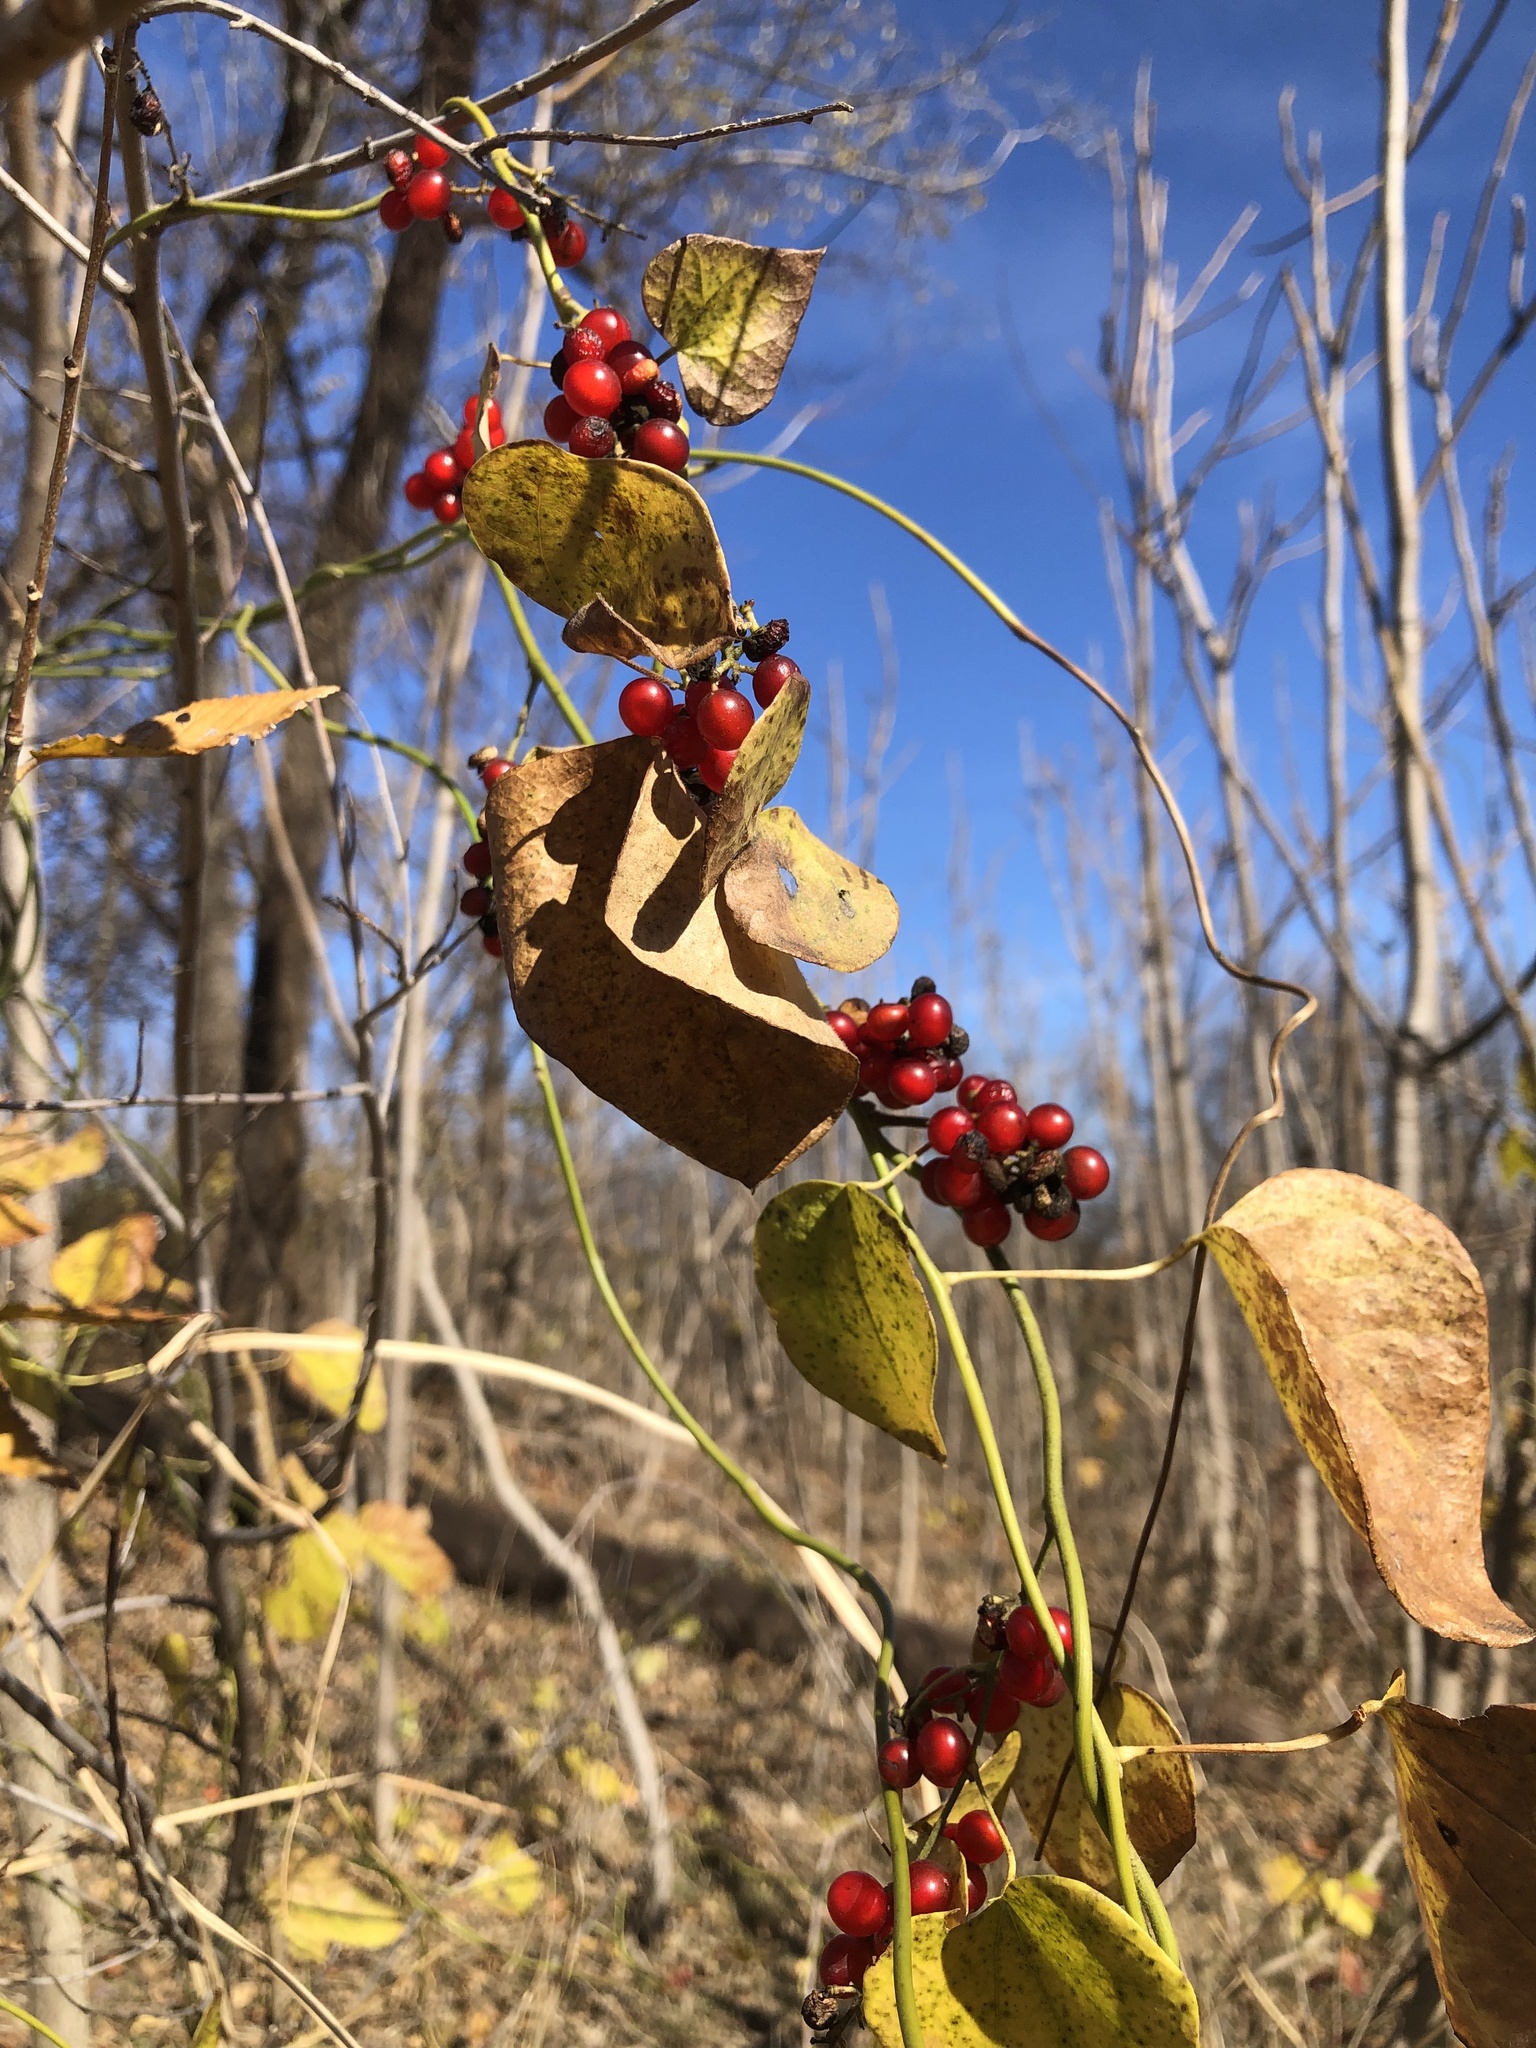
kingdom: Plantae
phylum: Tracheophyta
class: Magnoliopsida
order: Ranunculales
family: Menispermaceae
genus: Cocculus
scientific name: Cocculus carolinus
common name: Carolina moonseed
